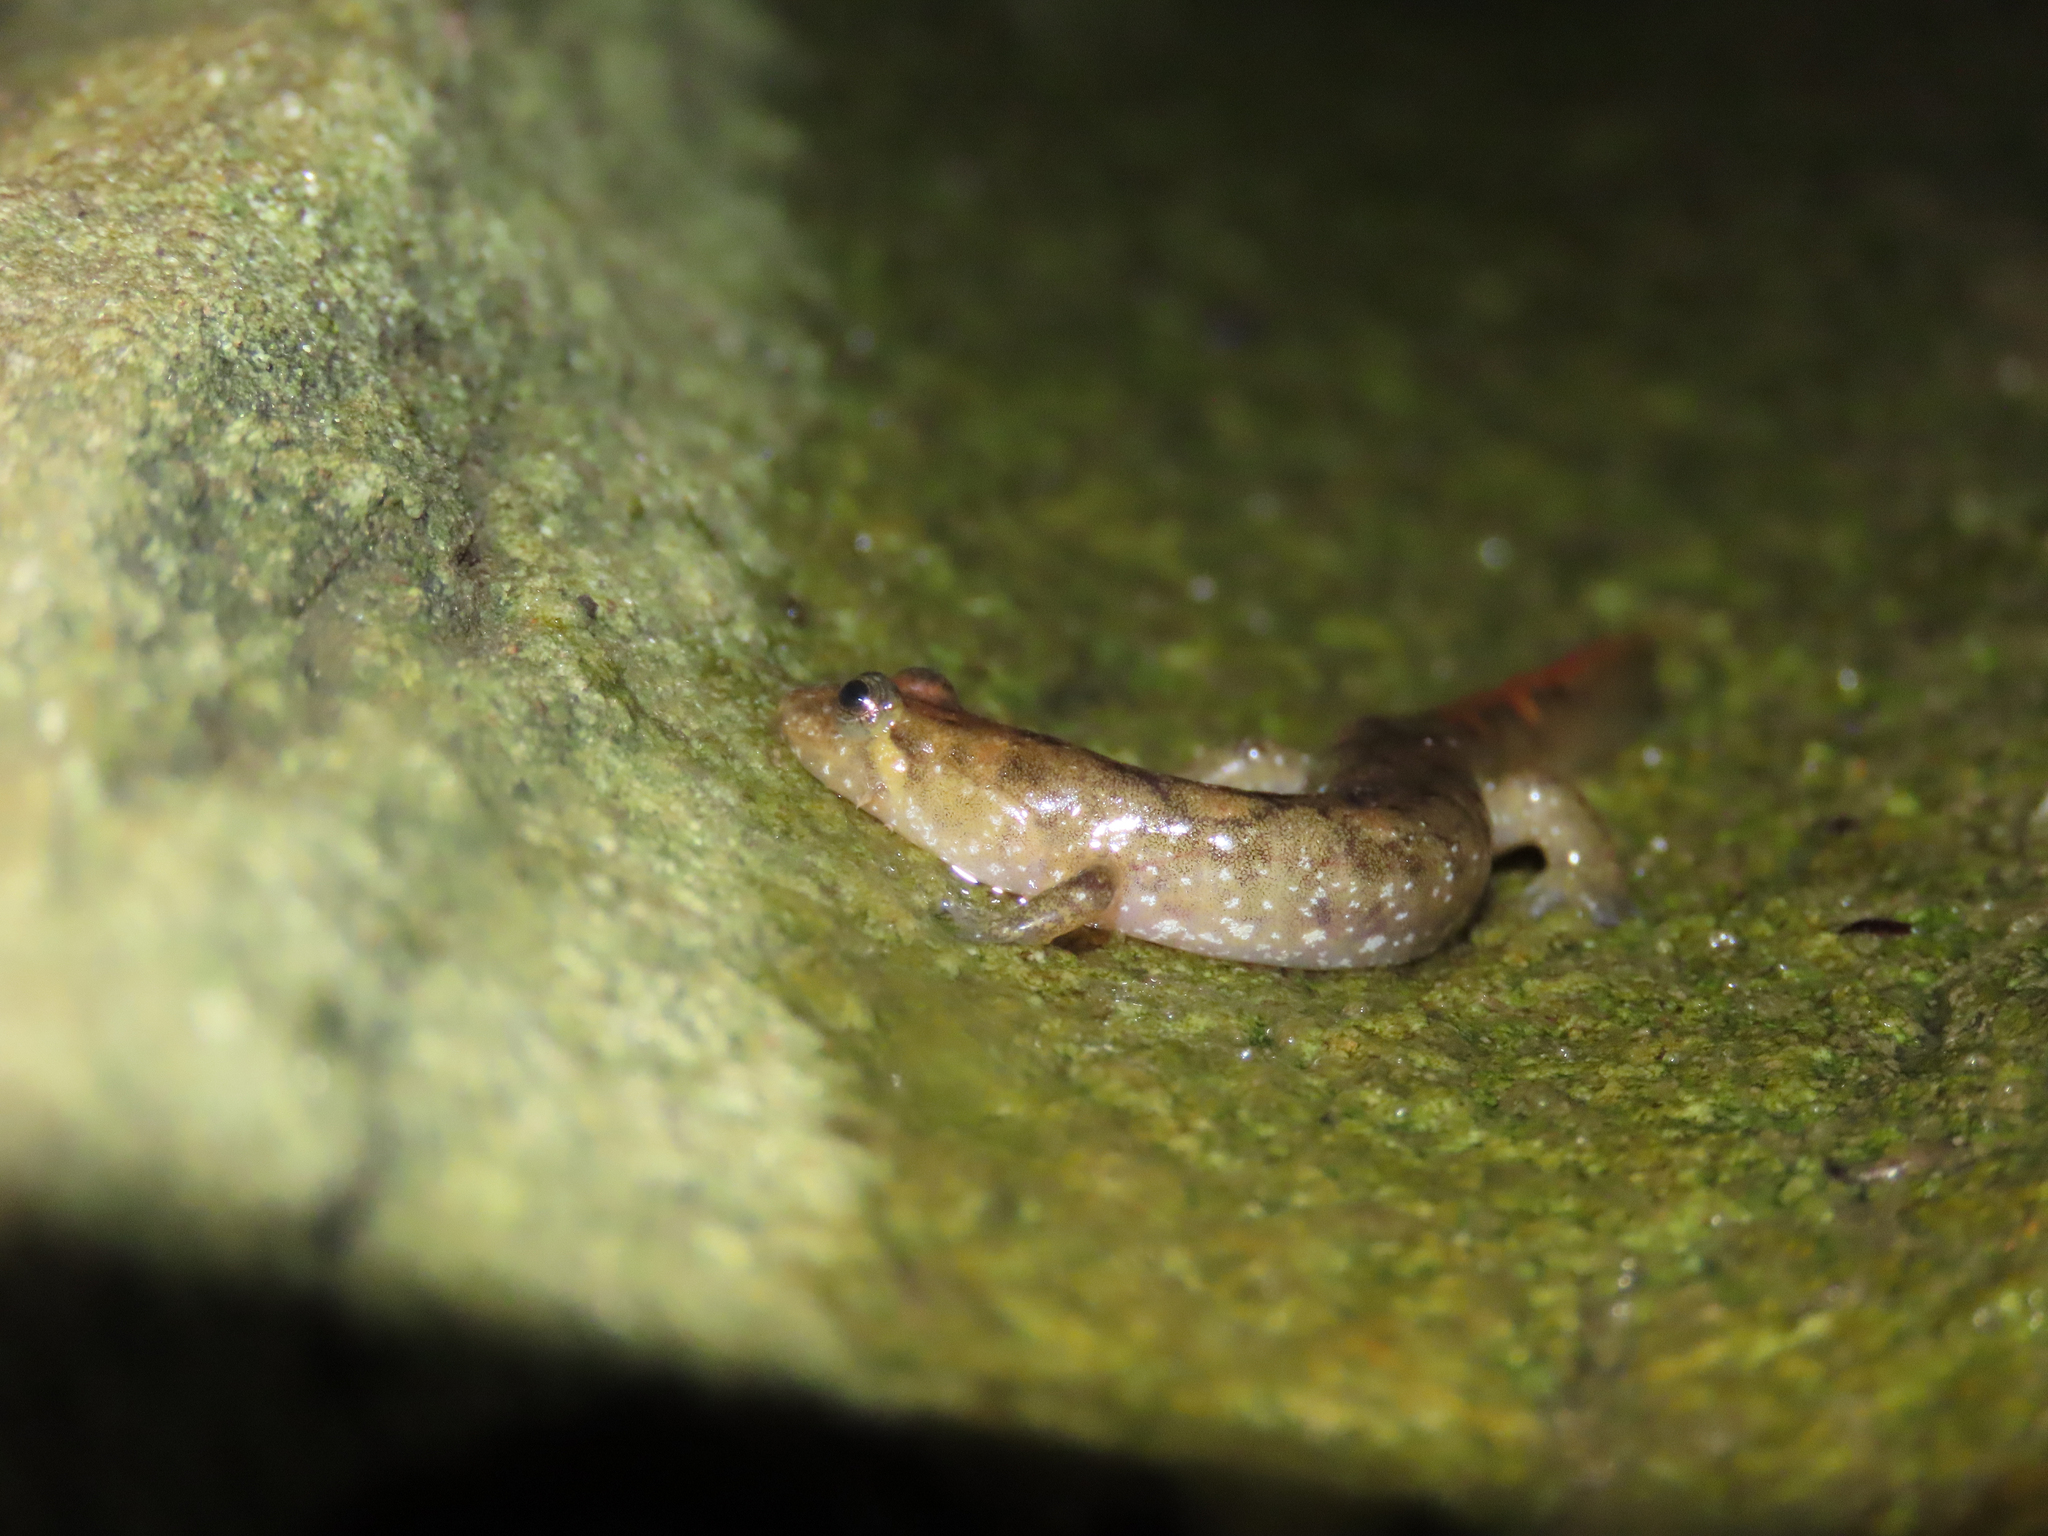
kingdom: Animalia
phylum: Chordata
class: Amphibia
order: Caudata
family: Plethodontidae
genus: Desmognathus
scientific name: Desmognathus monticola
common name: Seal salamander
